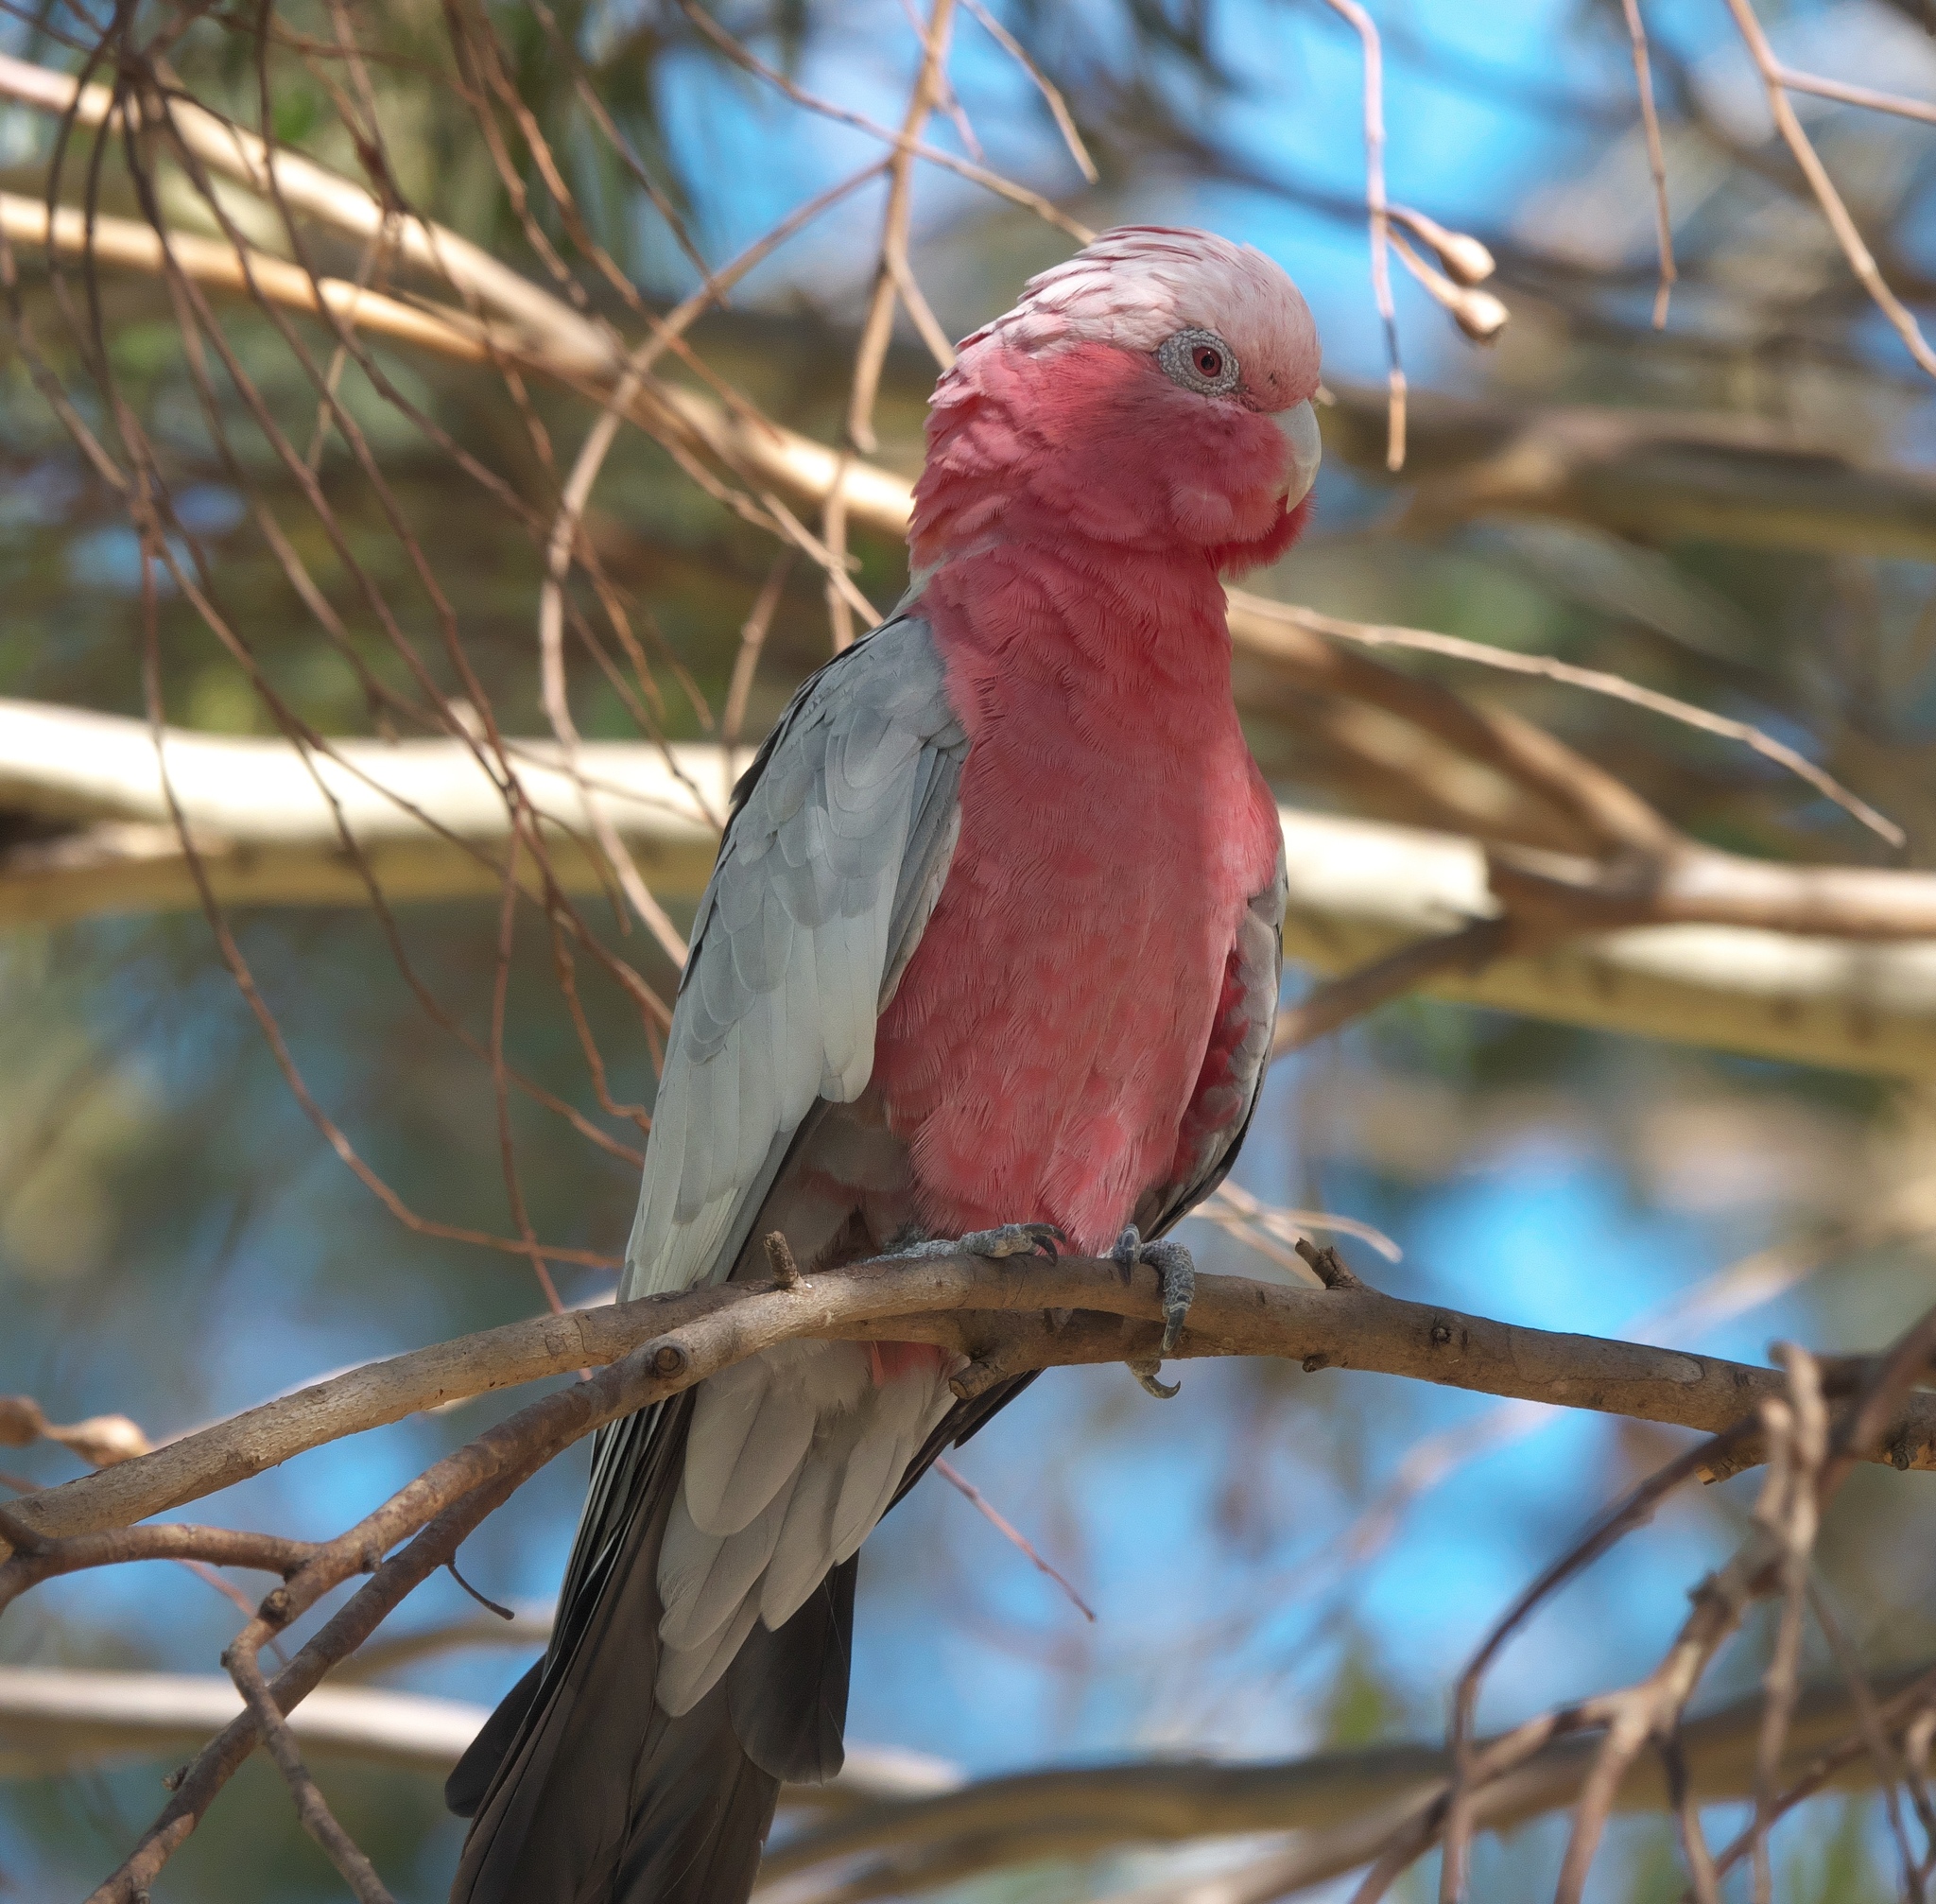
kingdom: Animalia
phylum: Chordata
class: Aves
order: Psittaciformes
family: Psittacidae
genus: Eolophus
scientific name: Eolophus roseicapilla
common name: Galah
